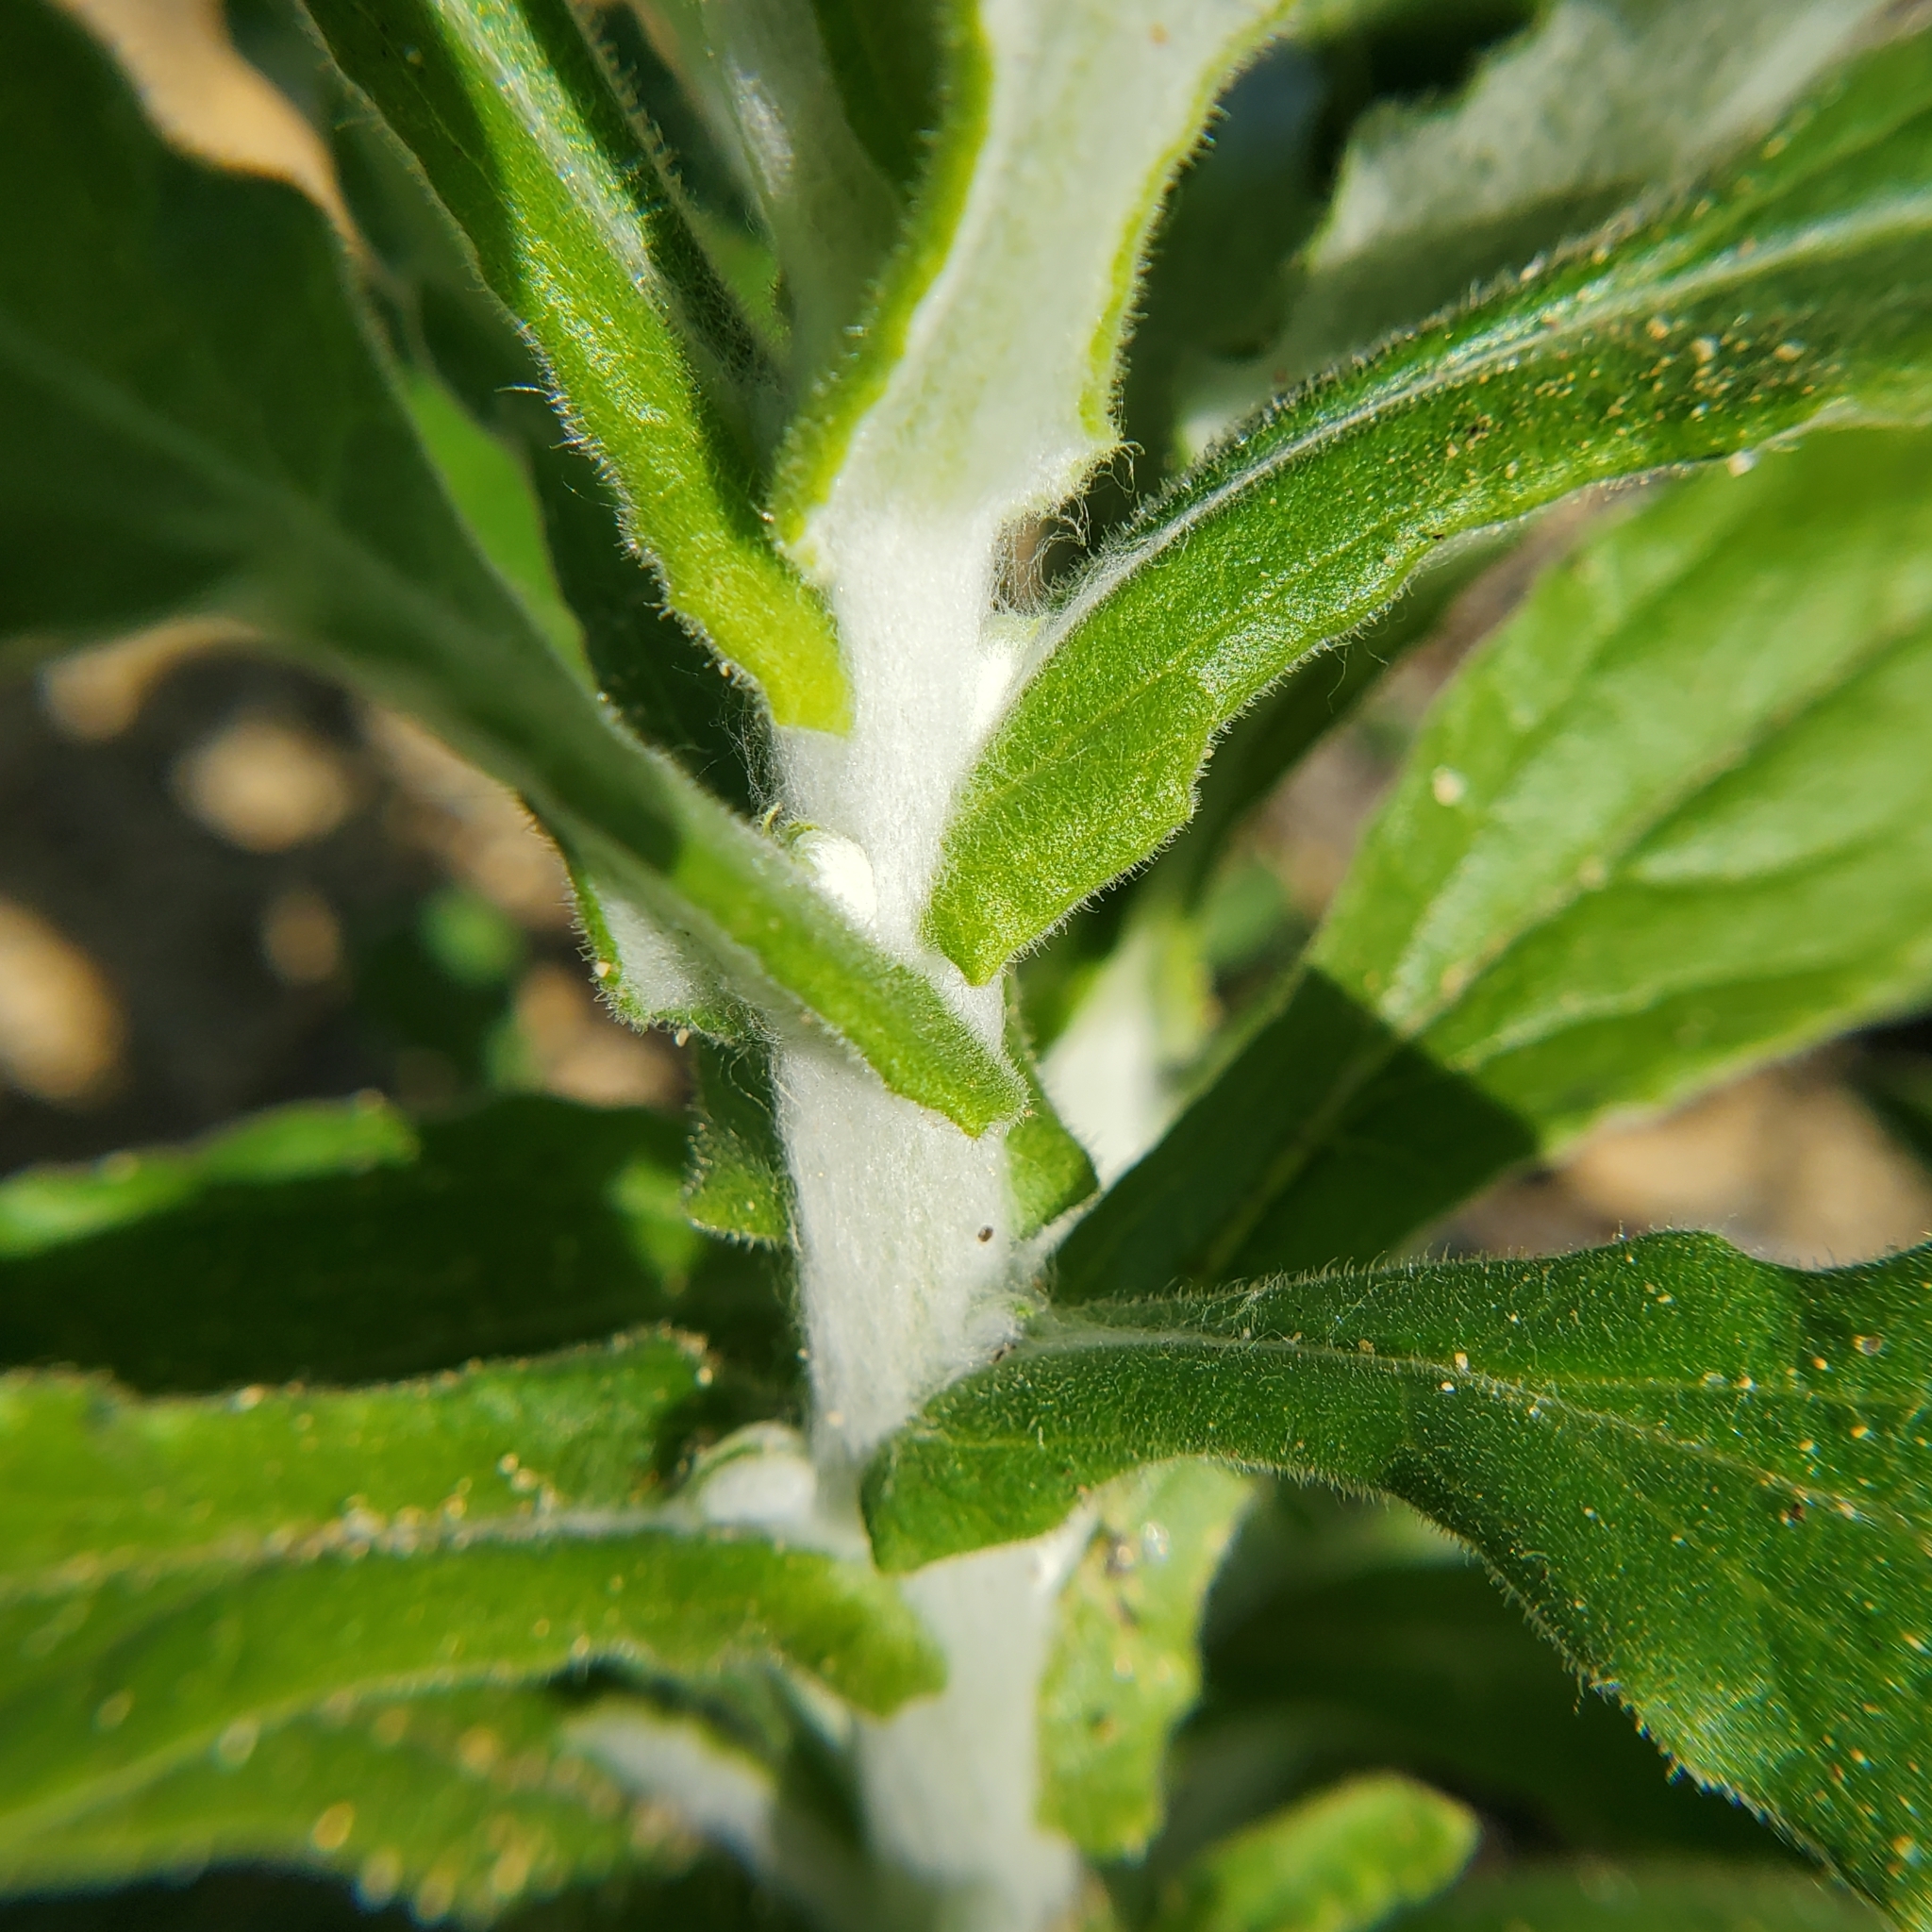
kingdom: Plantae
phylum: Tracheophyta
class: Magnoliopsida
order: Asterales
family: Asteraceae
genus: Pseudognaphalium
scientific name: Pseudognaphalium biolettii
